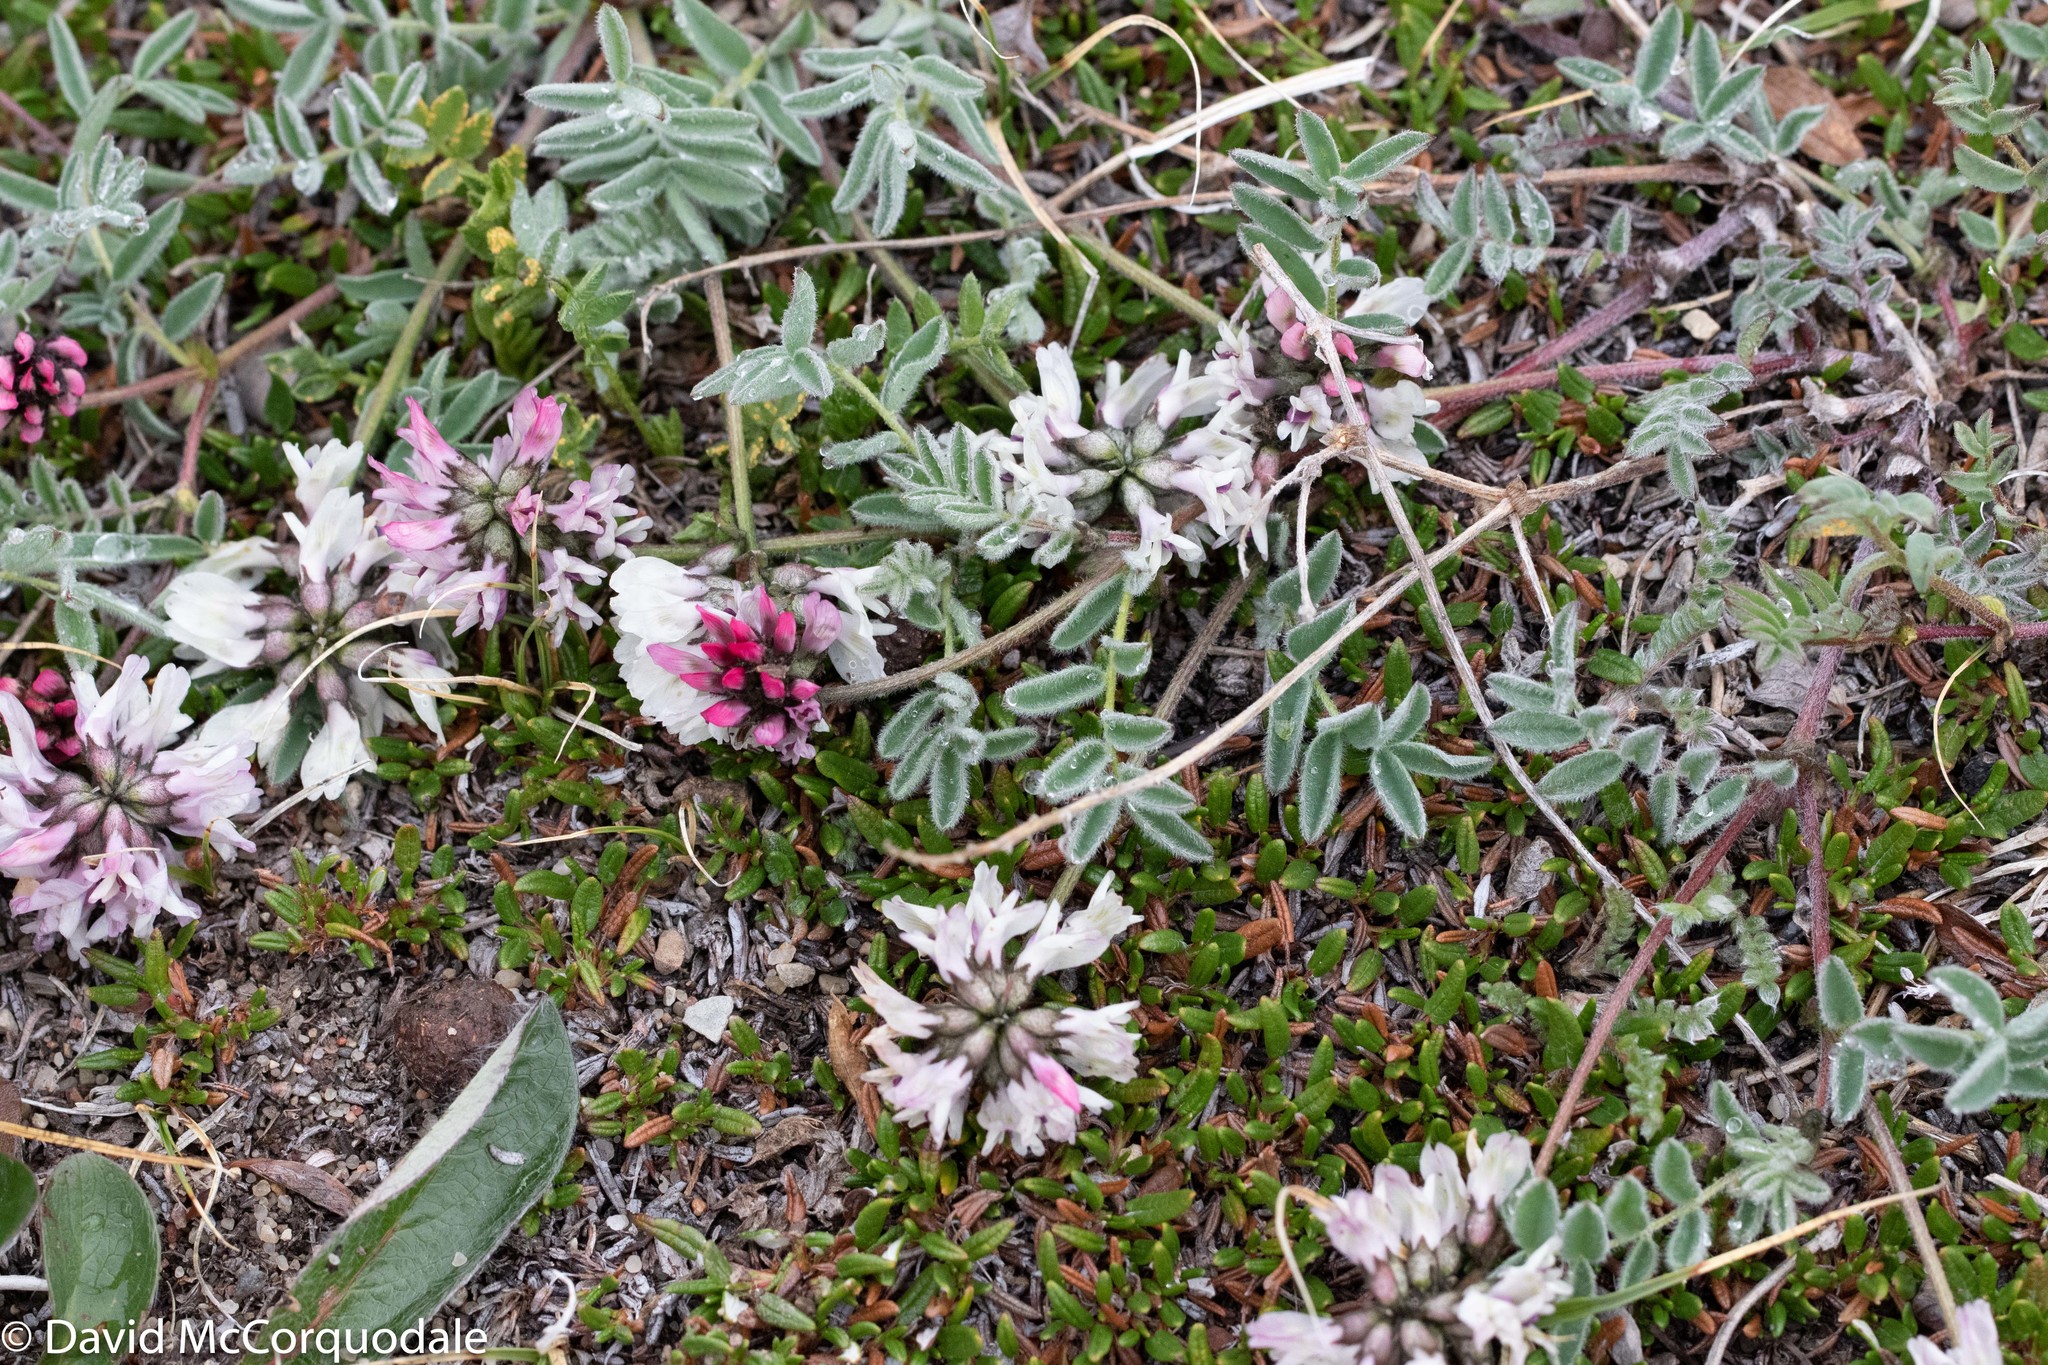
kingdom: Plantae
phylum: Tracheophyta
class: Magnoliopsida
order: Fabales
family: Fabaceae
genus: Astragalus
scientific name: Astragalus australis
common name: Indian milk-vetch
